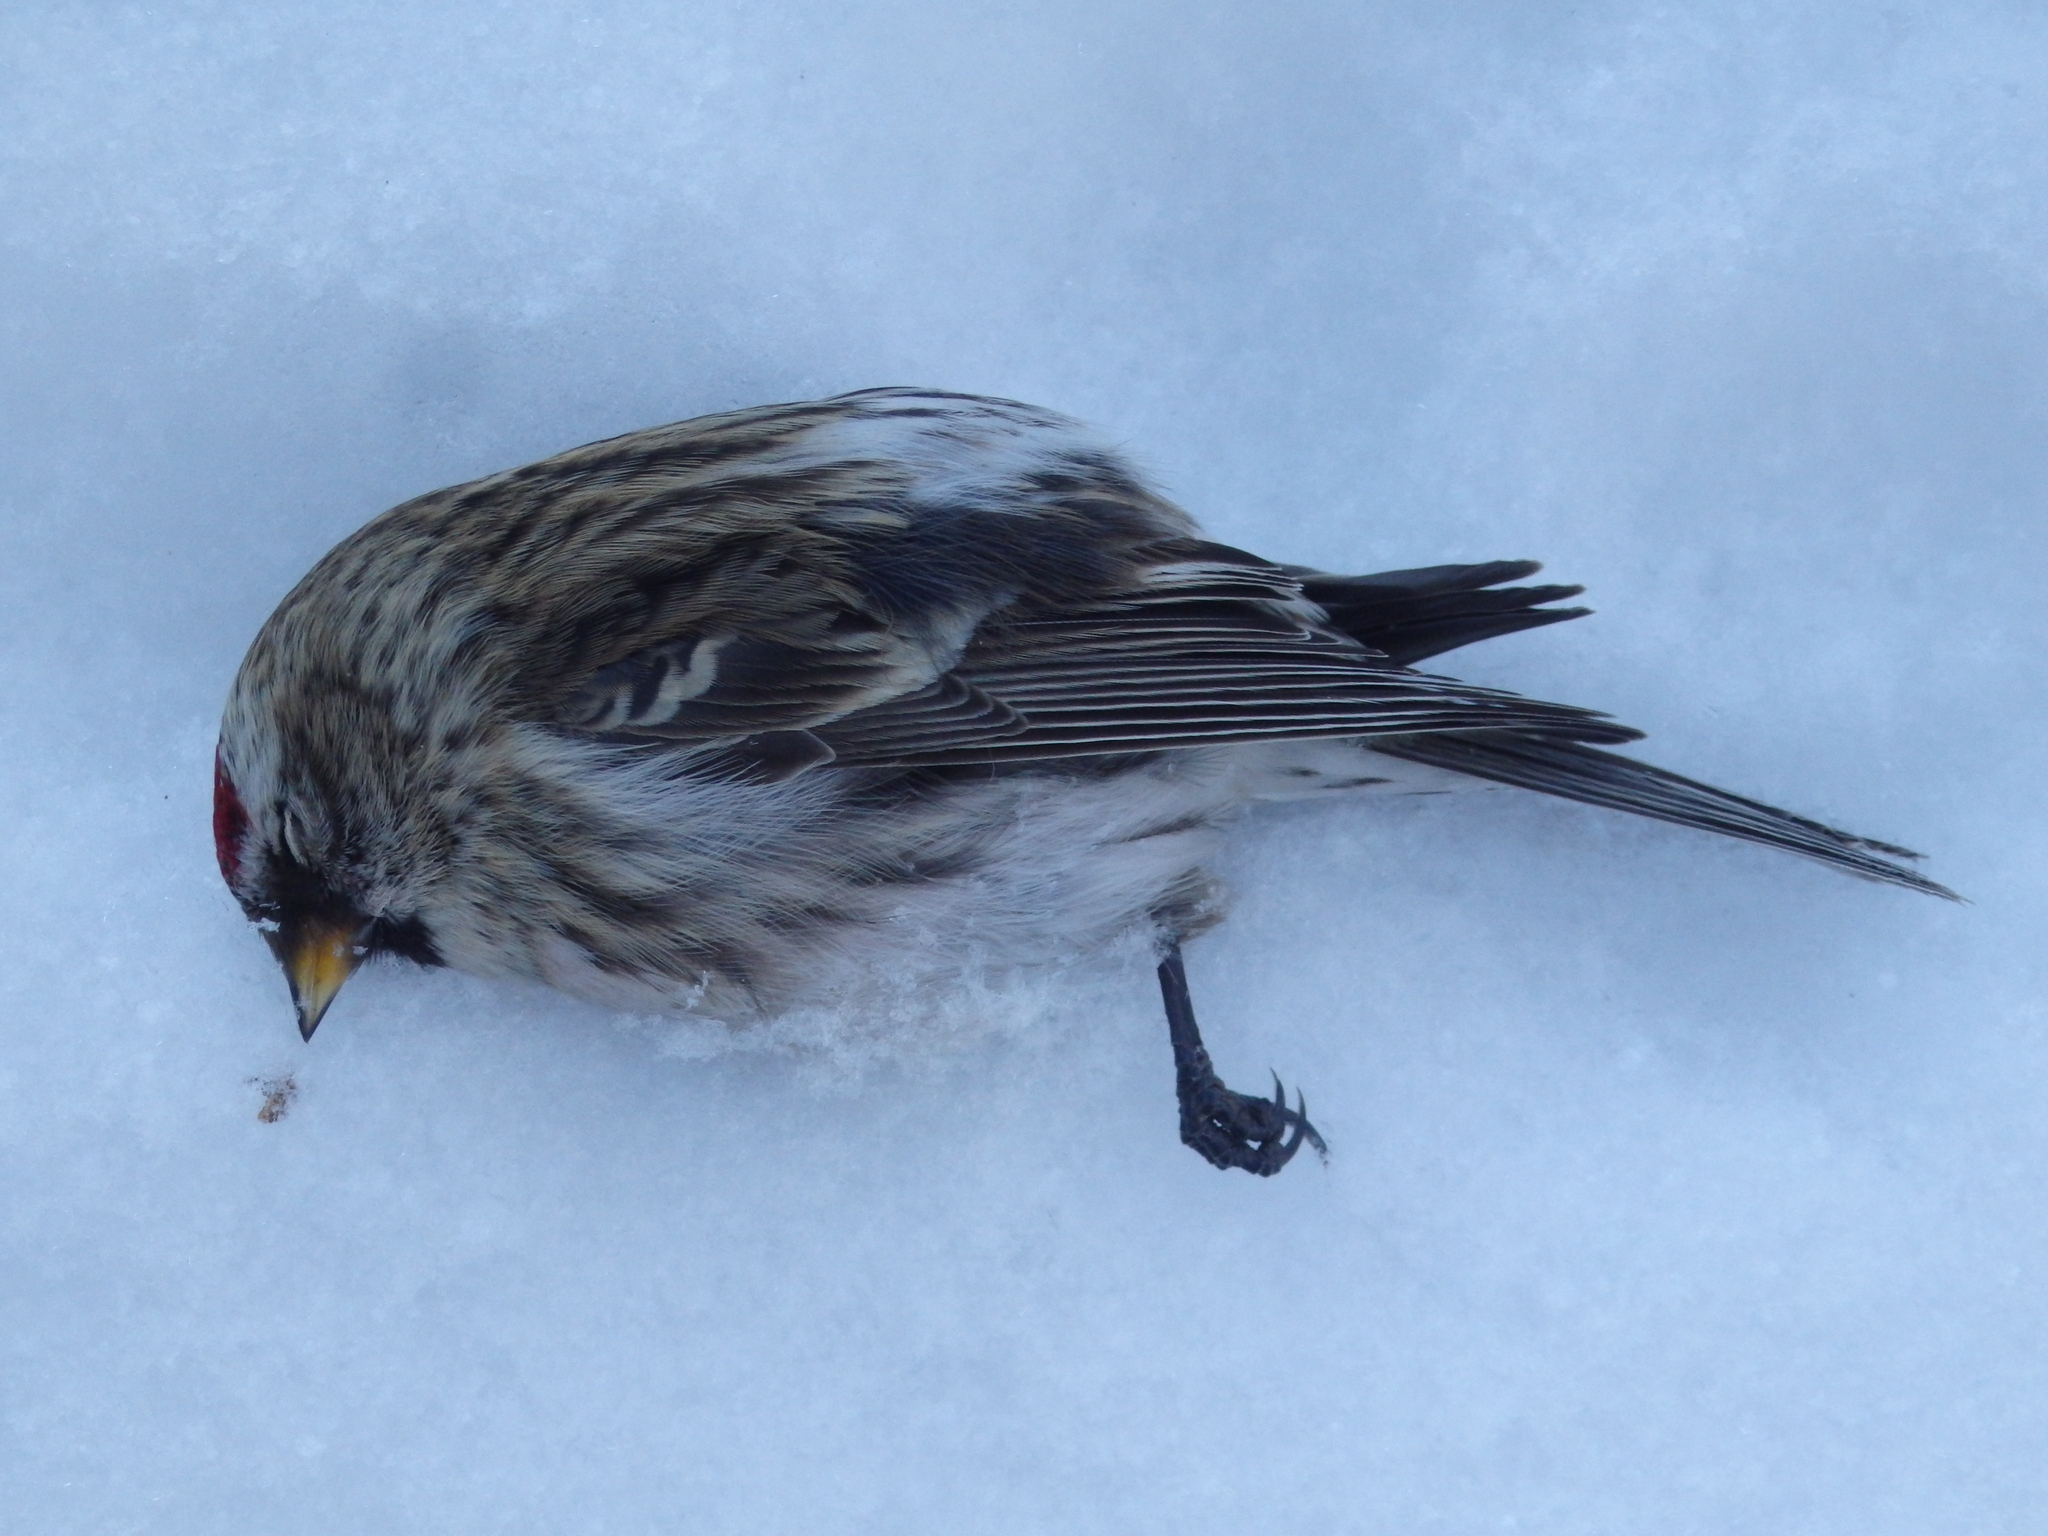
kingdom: Animalia
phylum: Chordata
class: Aves
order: Passeriformes
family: Fringillidae
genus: Acanthis
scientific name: Acanthis flammea
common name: Common redpoll
